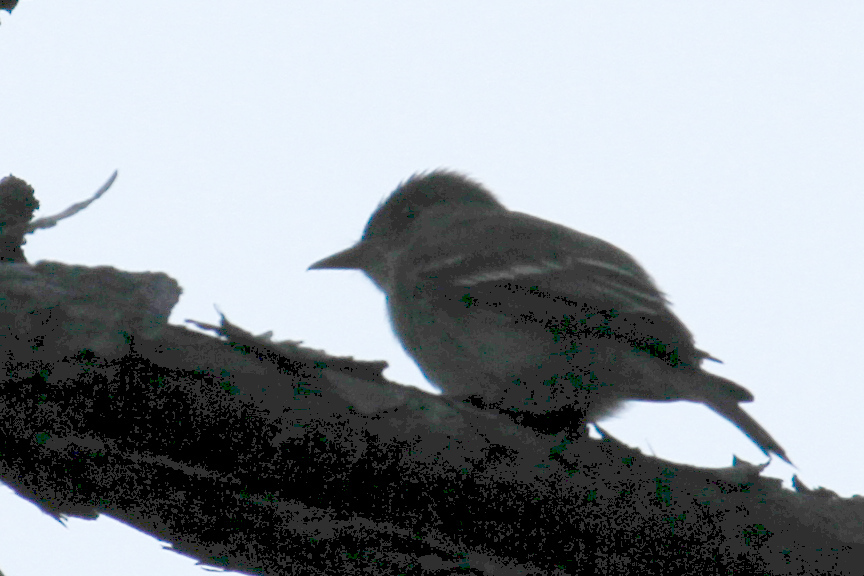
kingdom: Animalia
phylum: Chordata
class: Aves
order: Passeriformes
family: Tyrannidae
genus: Contopus
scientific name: Contopus virens
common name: Eastern wood-pewee
